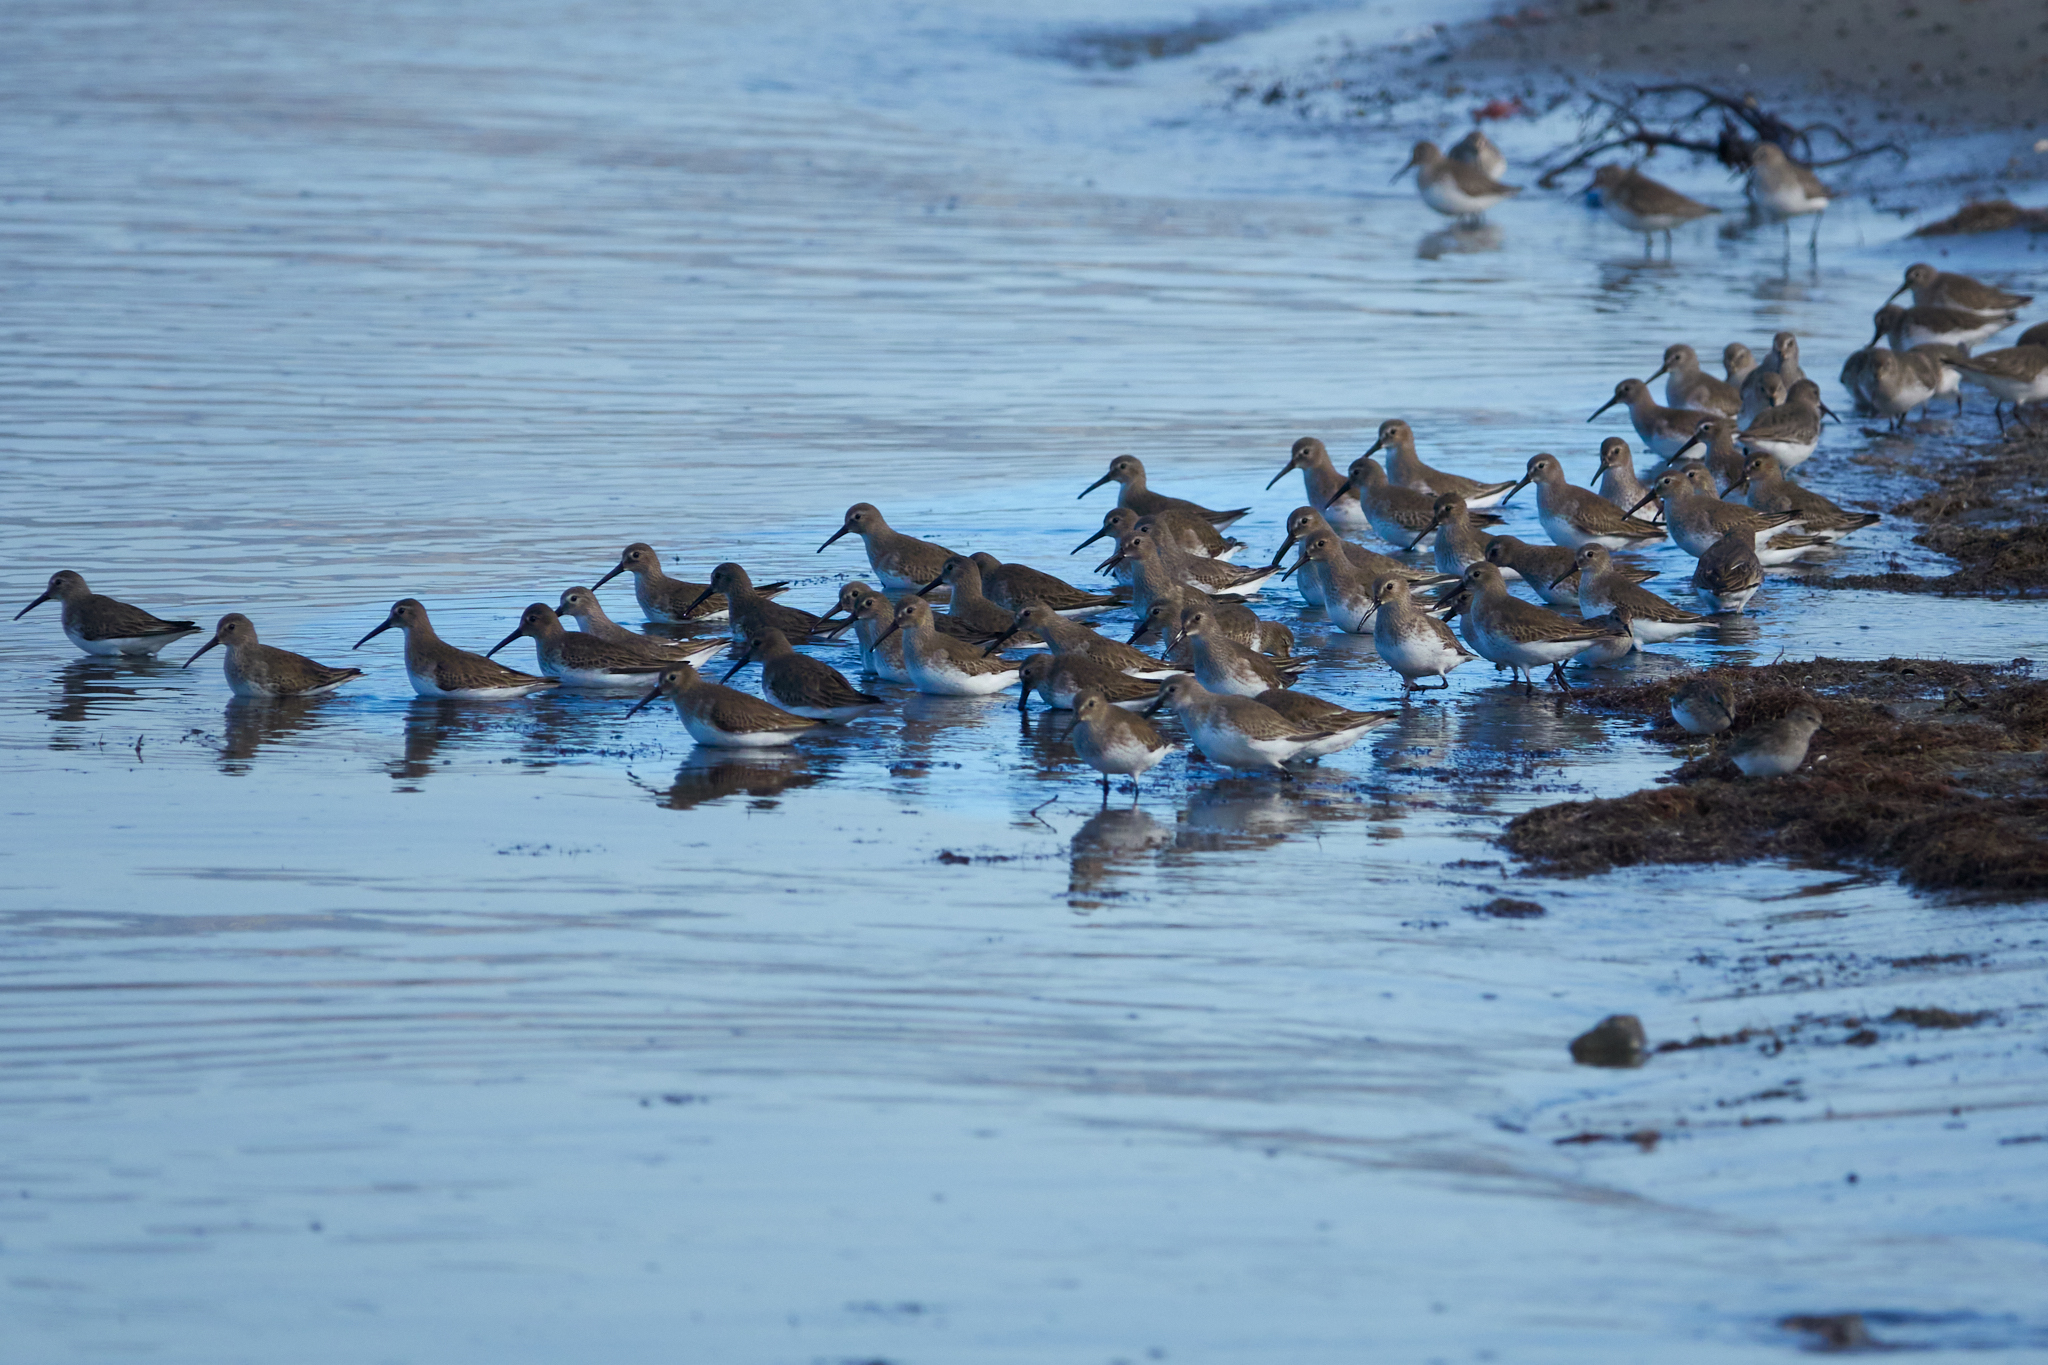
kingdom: Animalia
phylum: Chordata
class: Aves
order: Charadriiformes
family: Scolopacidae
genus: Calidris
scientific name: Calidris alpina
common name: Dunlin
